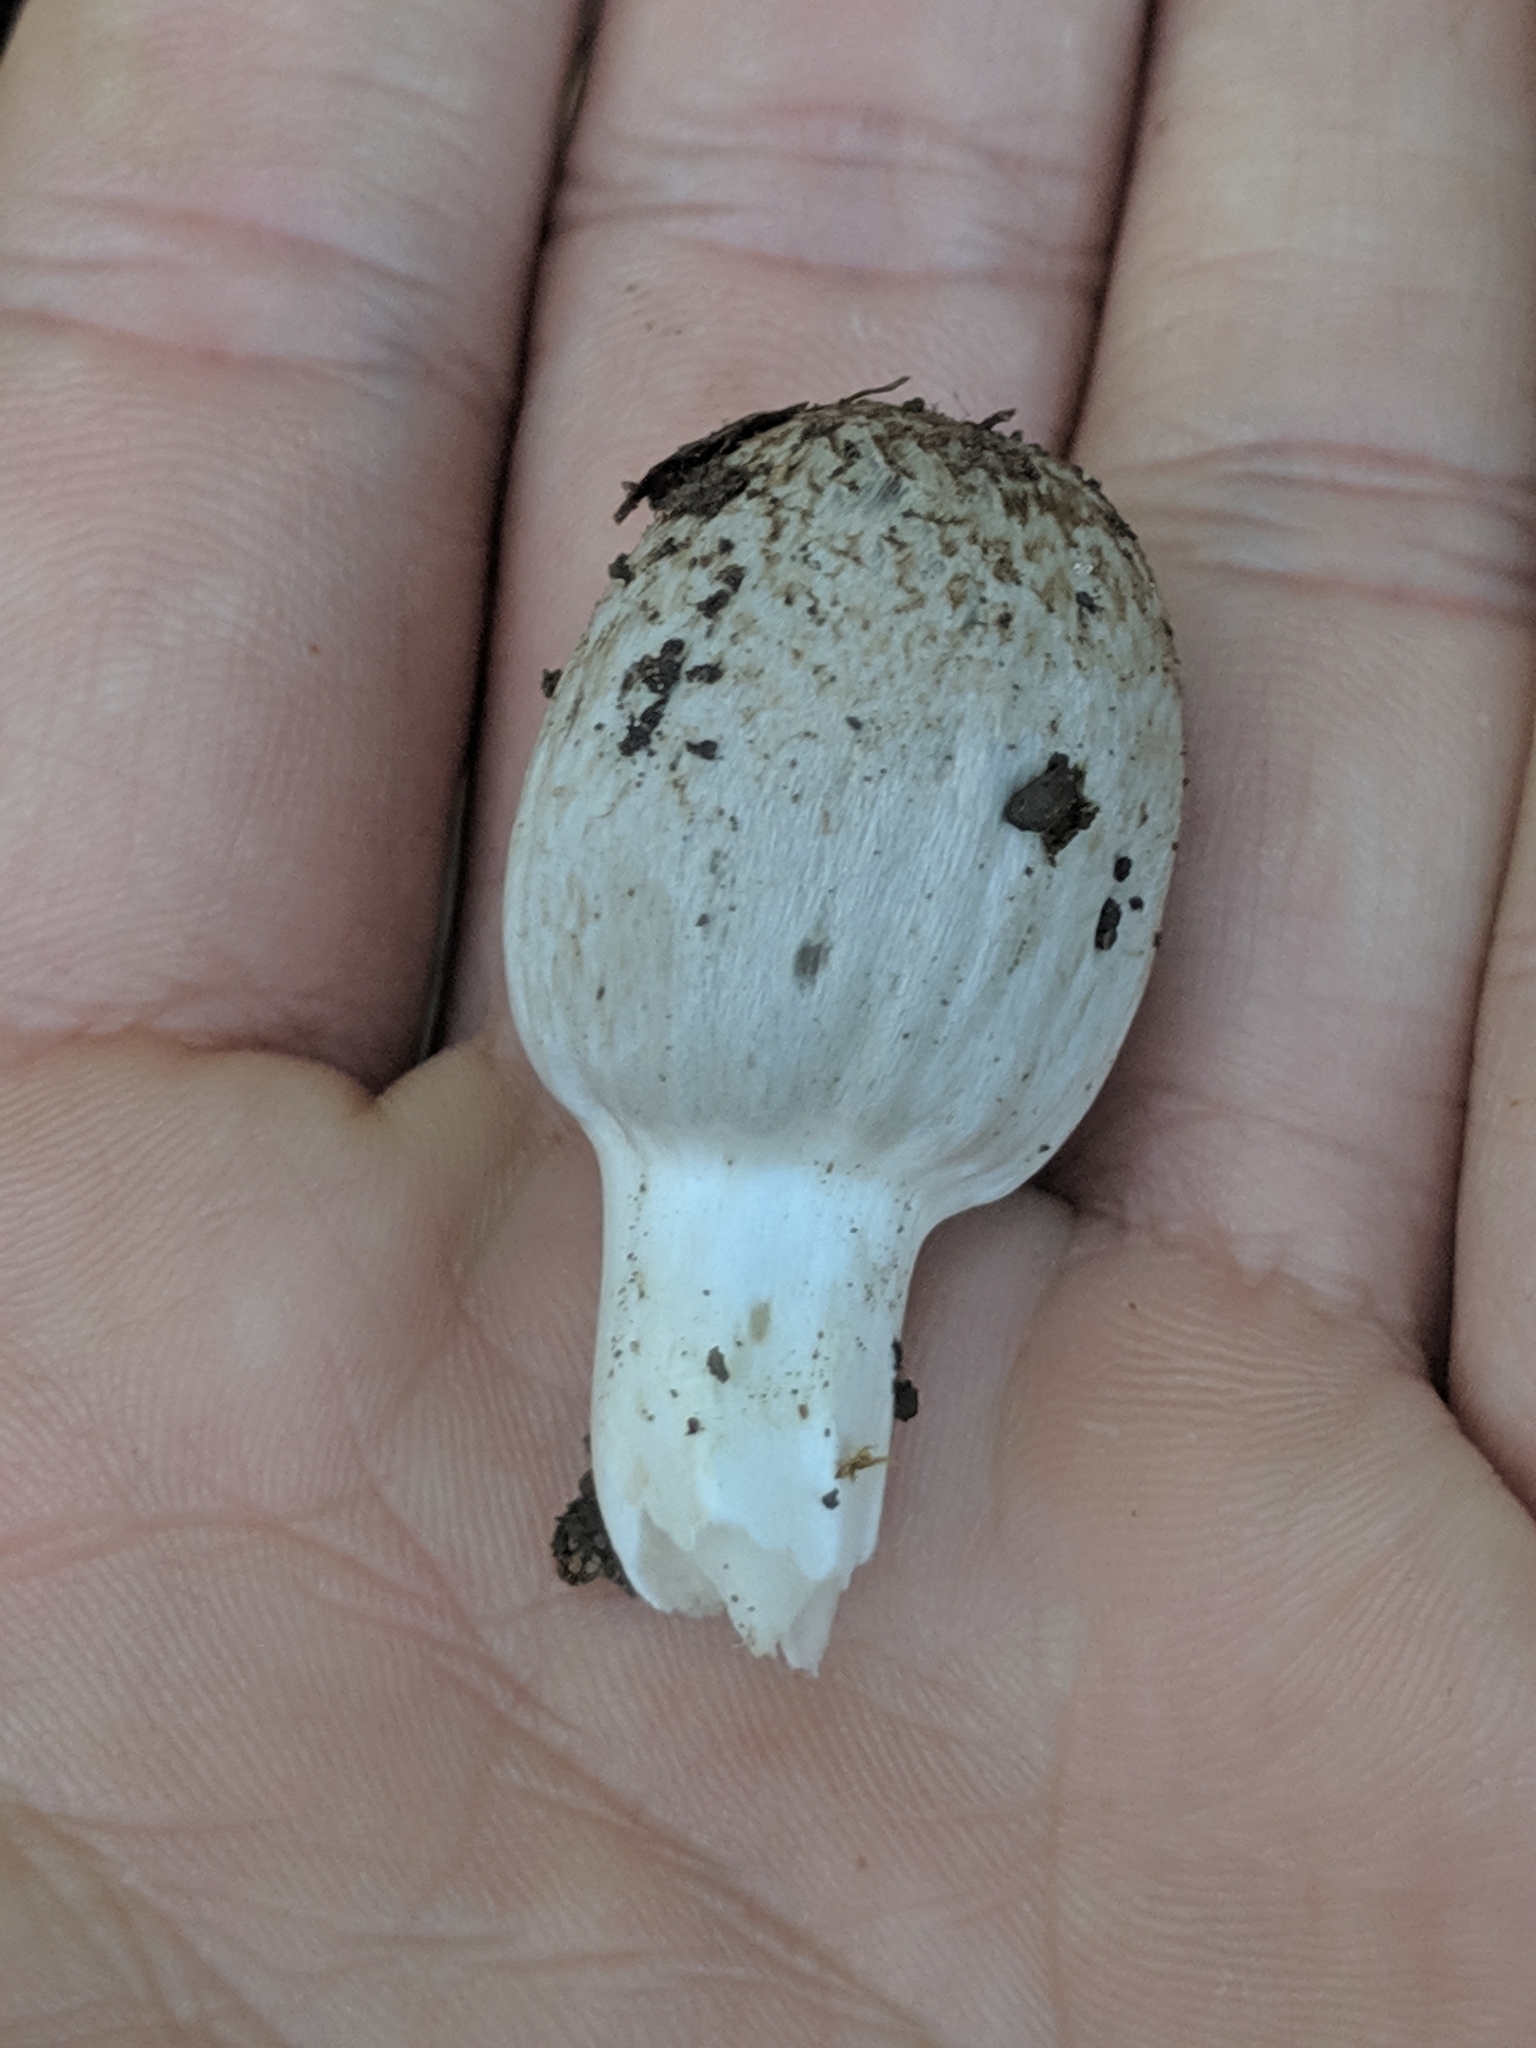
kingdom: Fungi
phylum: Basidiomycota
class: Agaricomycetes
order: Agaricales
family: Psathyrellaceae
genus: Coprinopsis
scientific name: Coprinopsis romagnesiana
